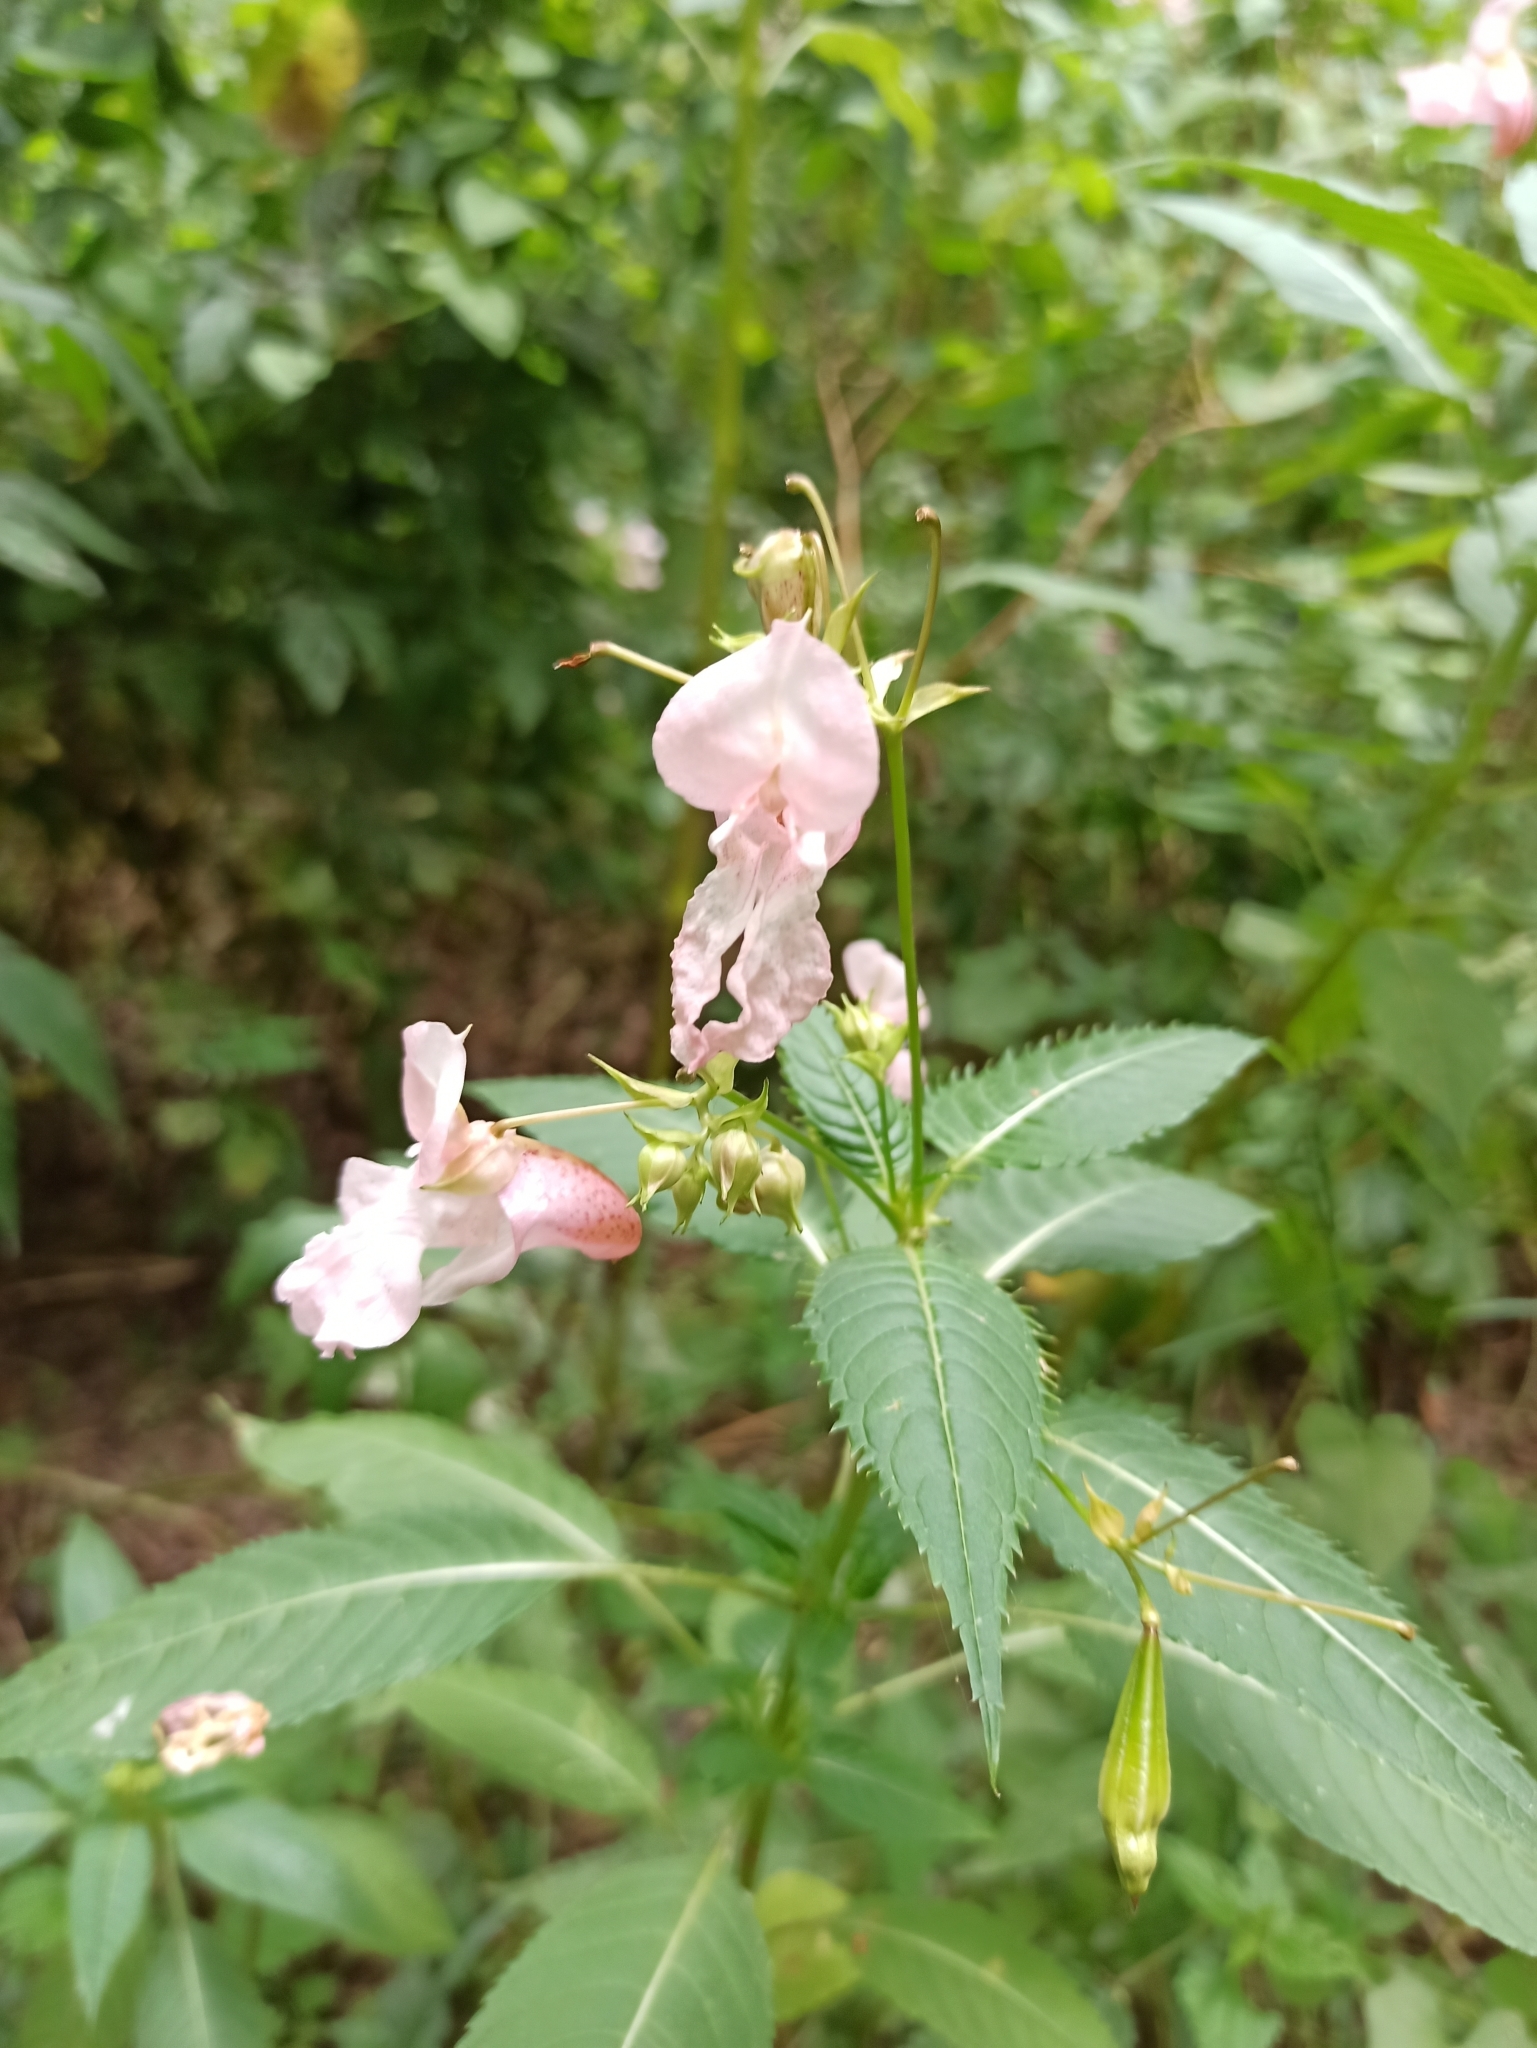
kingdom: Plantae
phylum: Tracheophyta
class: Magnoliopsida
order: Ericales
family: Balsaminaceae
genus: Impatiens
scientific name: Impatiens glandulifera
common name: Himalayan balsam
